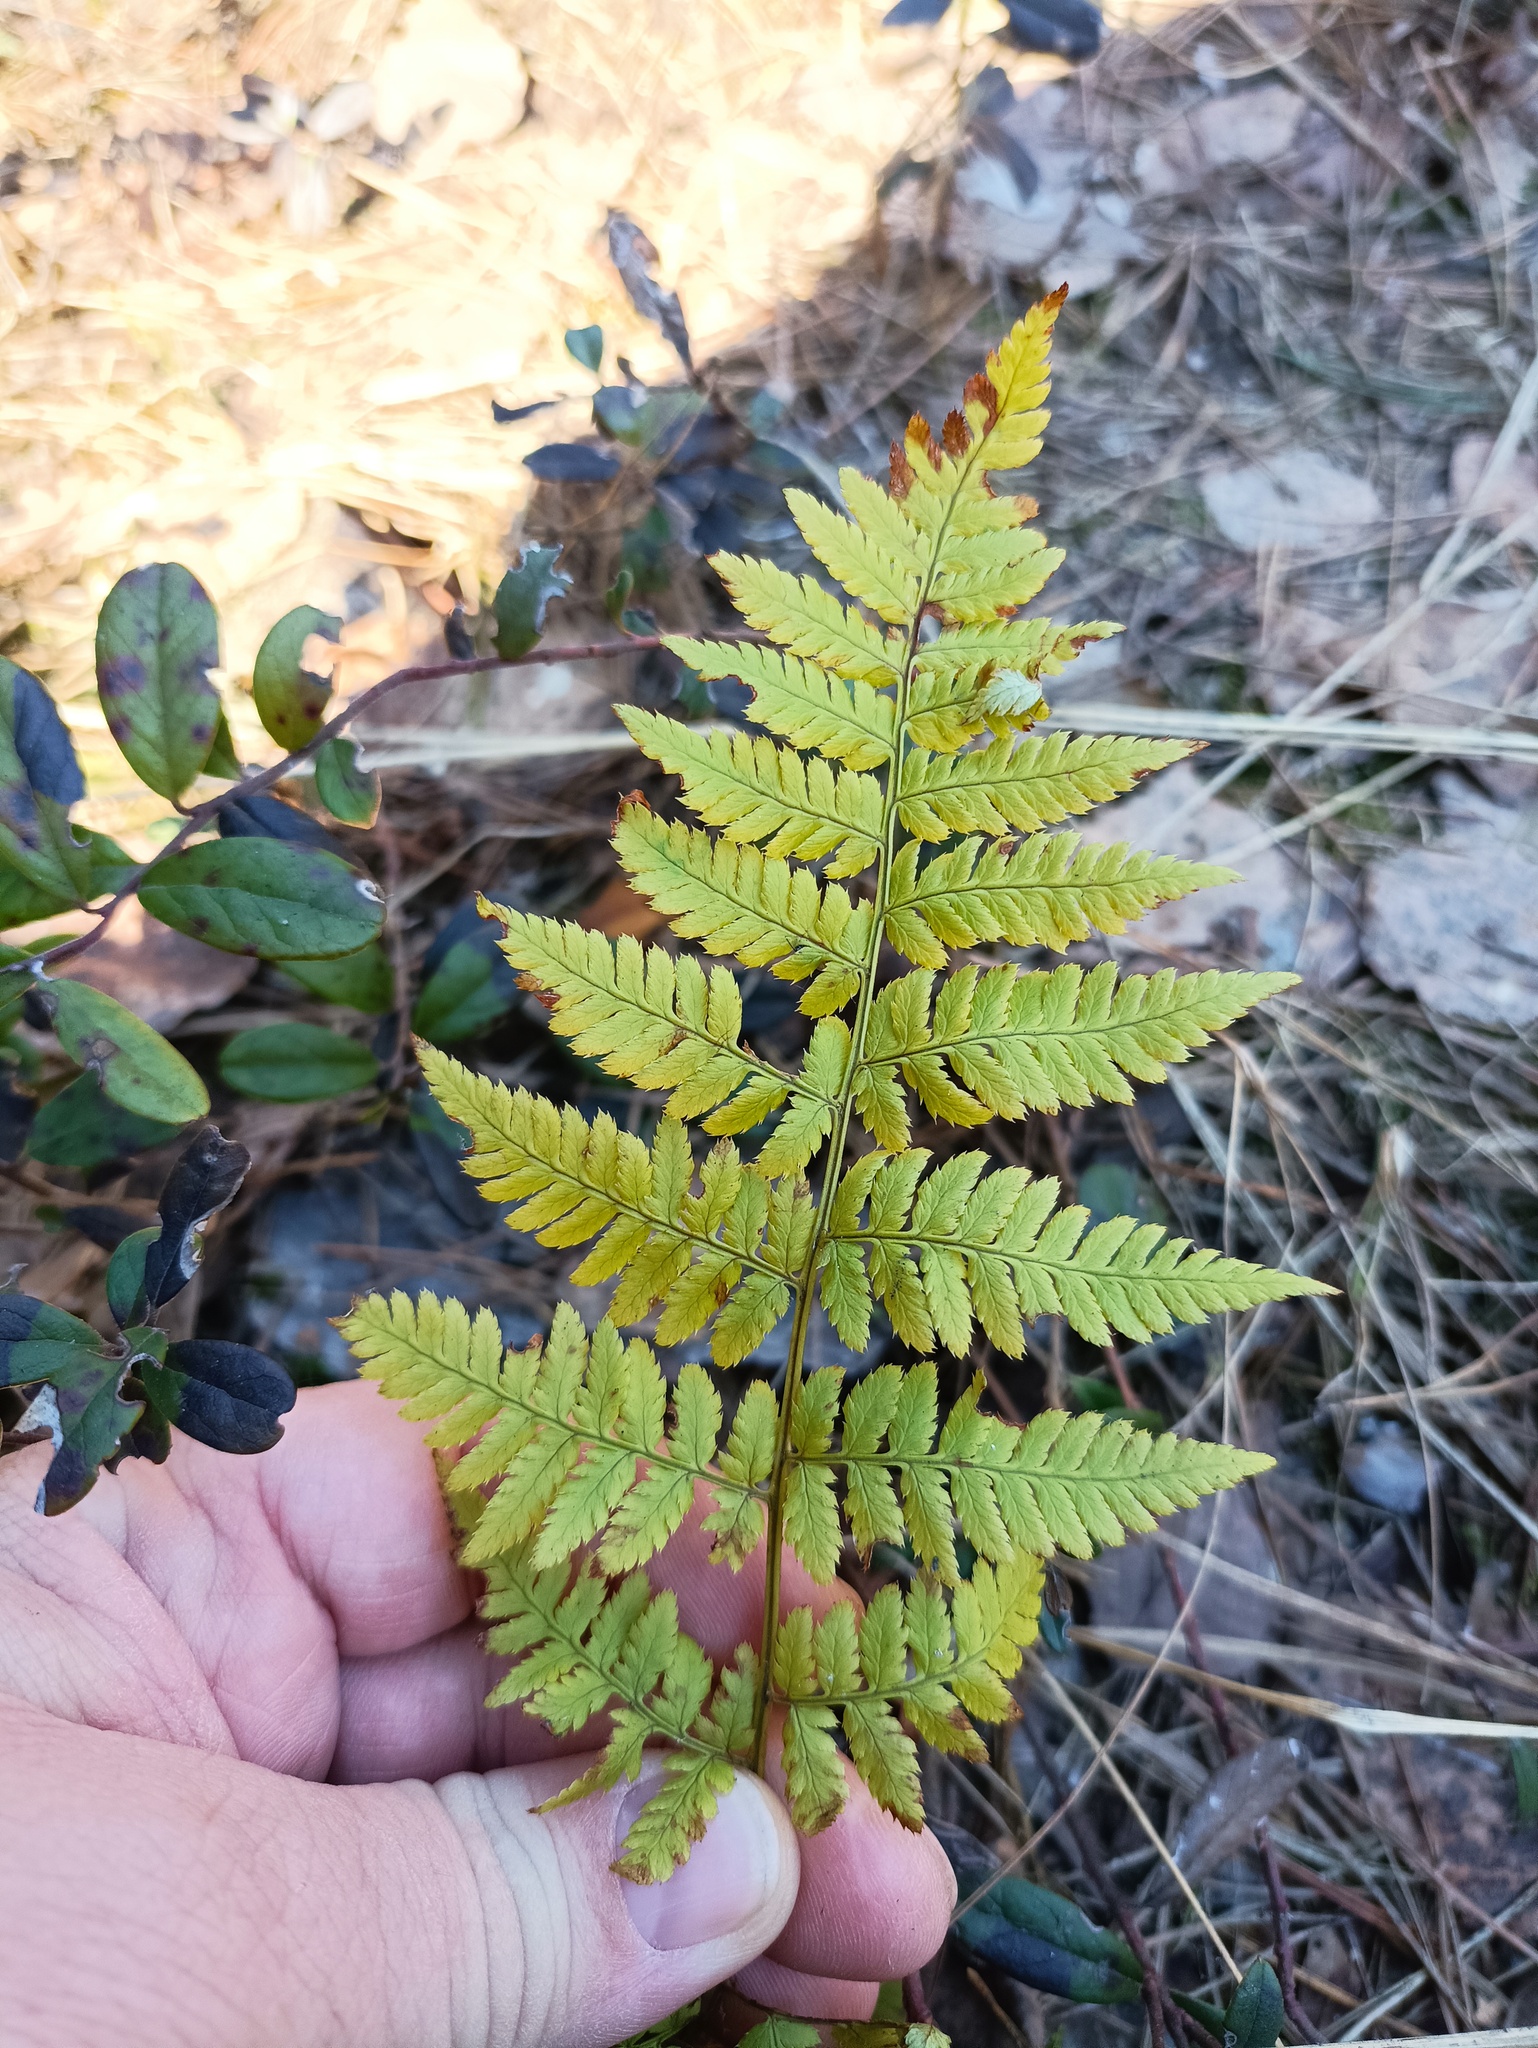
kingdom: Plantae
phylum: Tracheophyta
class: Polypodiopsida
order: Polypodiales
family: Dryopteridaceae
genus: Dryopteris
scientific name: Dryopteris carthusiana
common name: Narrow buckler-fern
